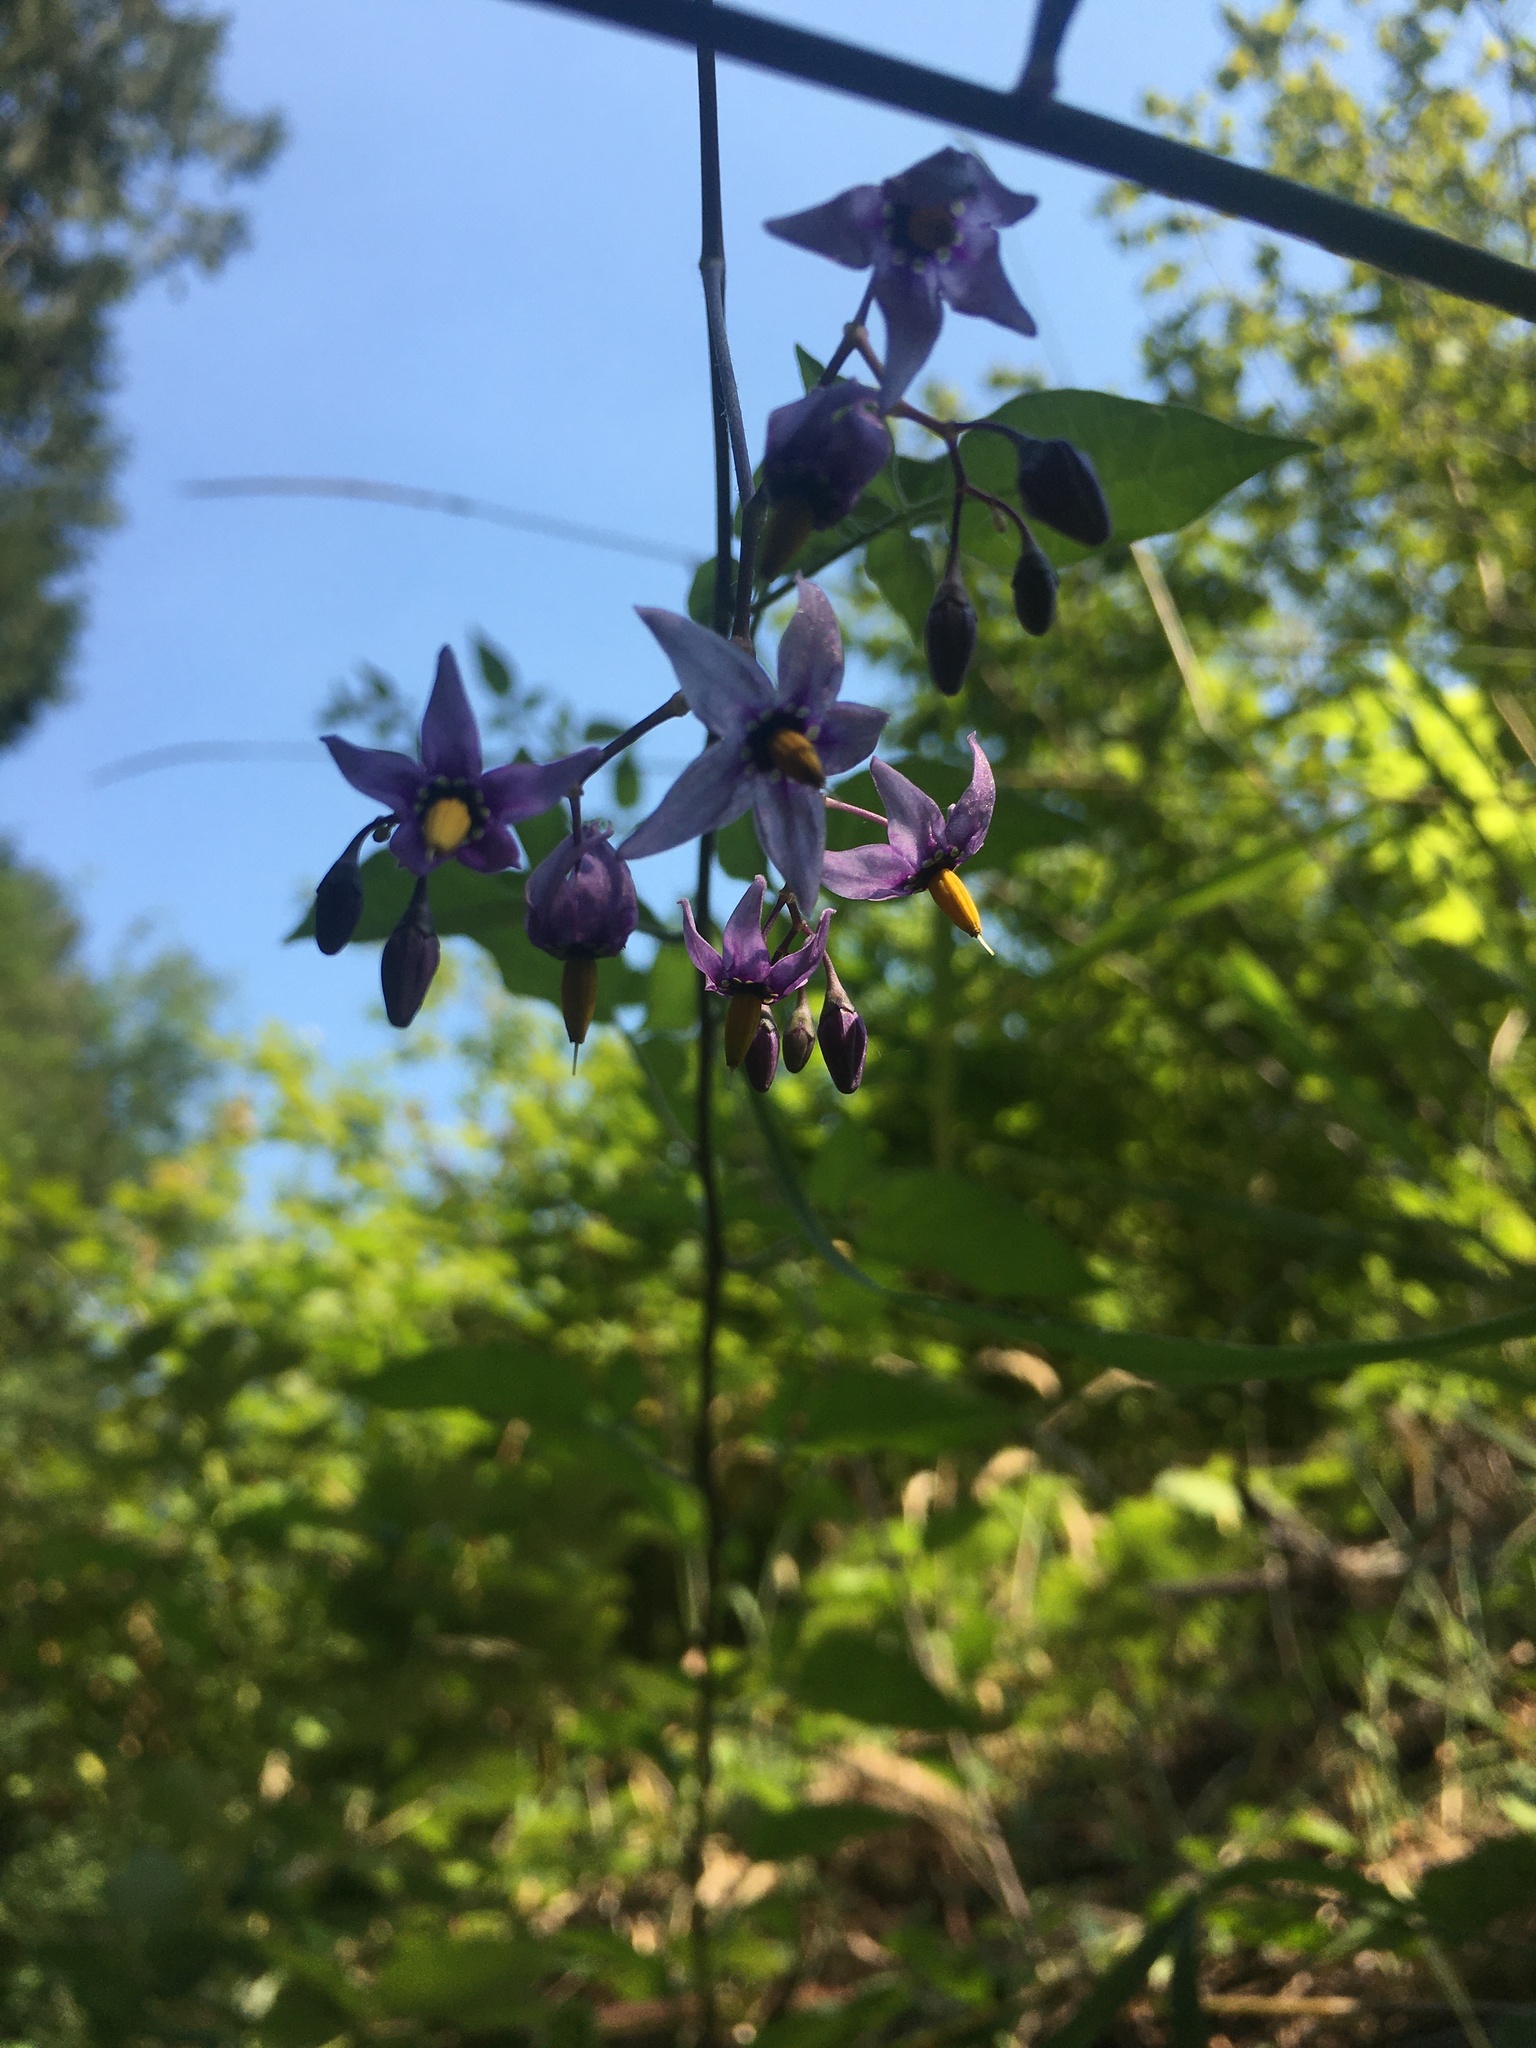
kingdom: Plantae
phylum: Tracheophyta
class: Magnoliopsida
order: Solanales
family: Solanaceae
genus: Solanum
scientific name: Solanum dulcamara
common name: Climbing nightshade
